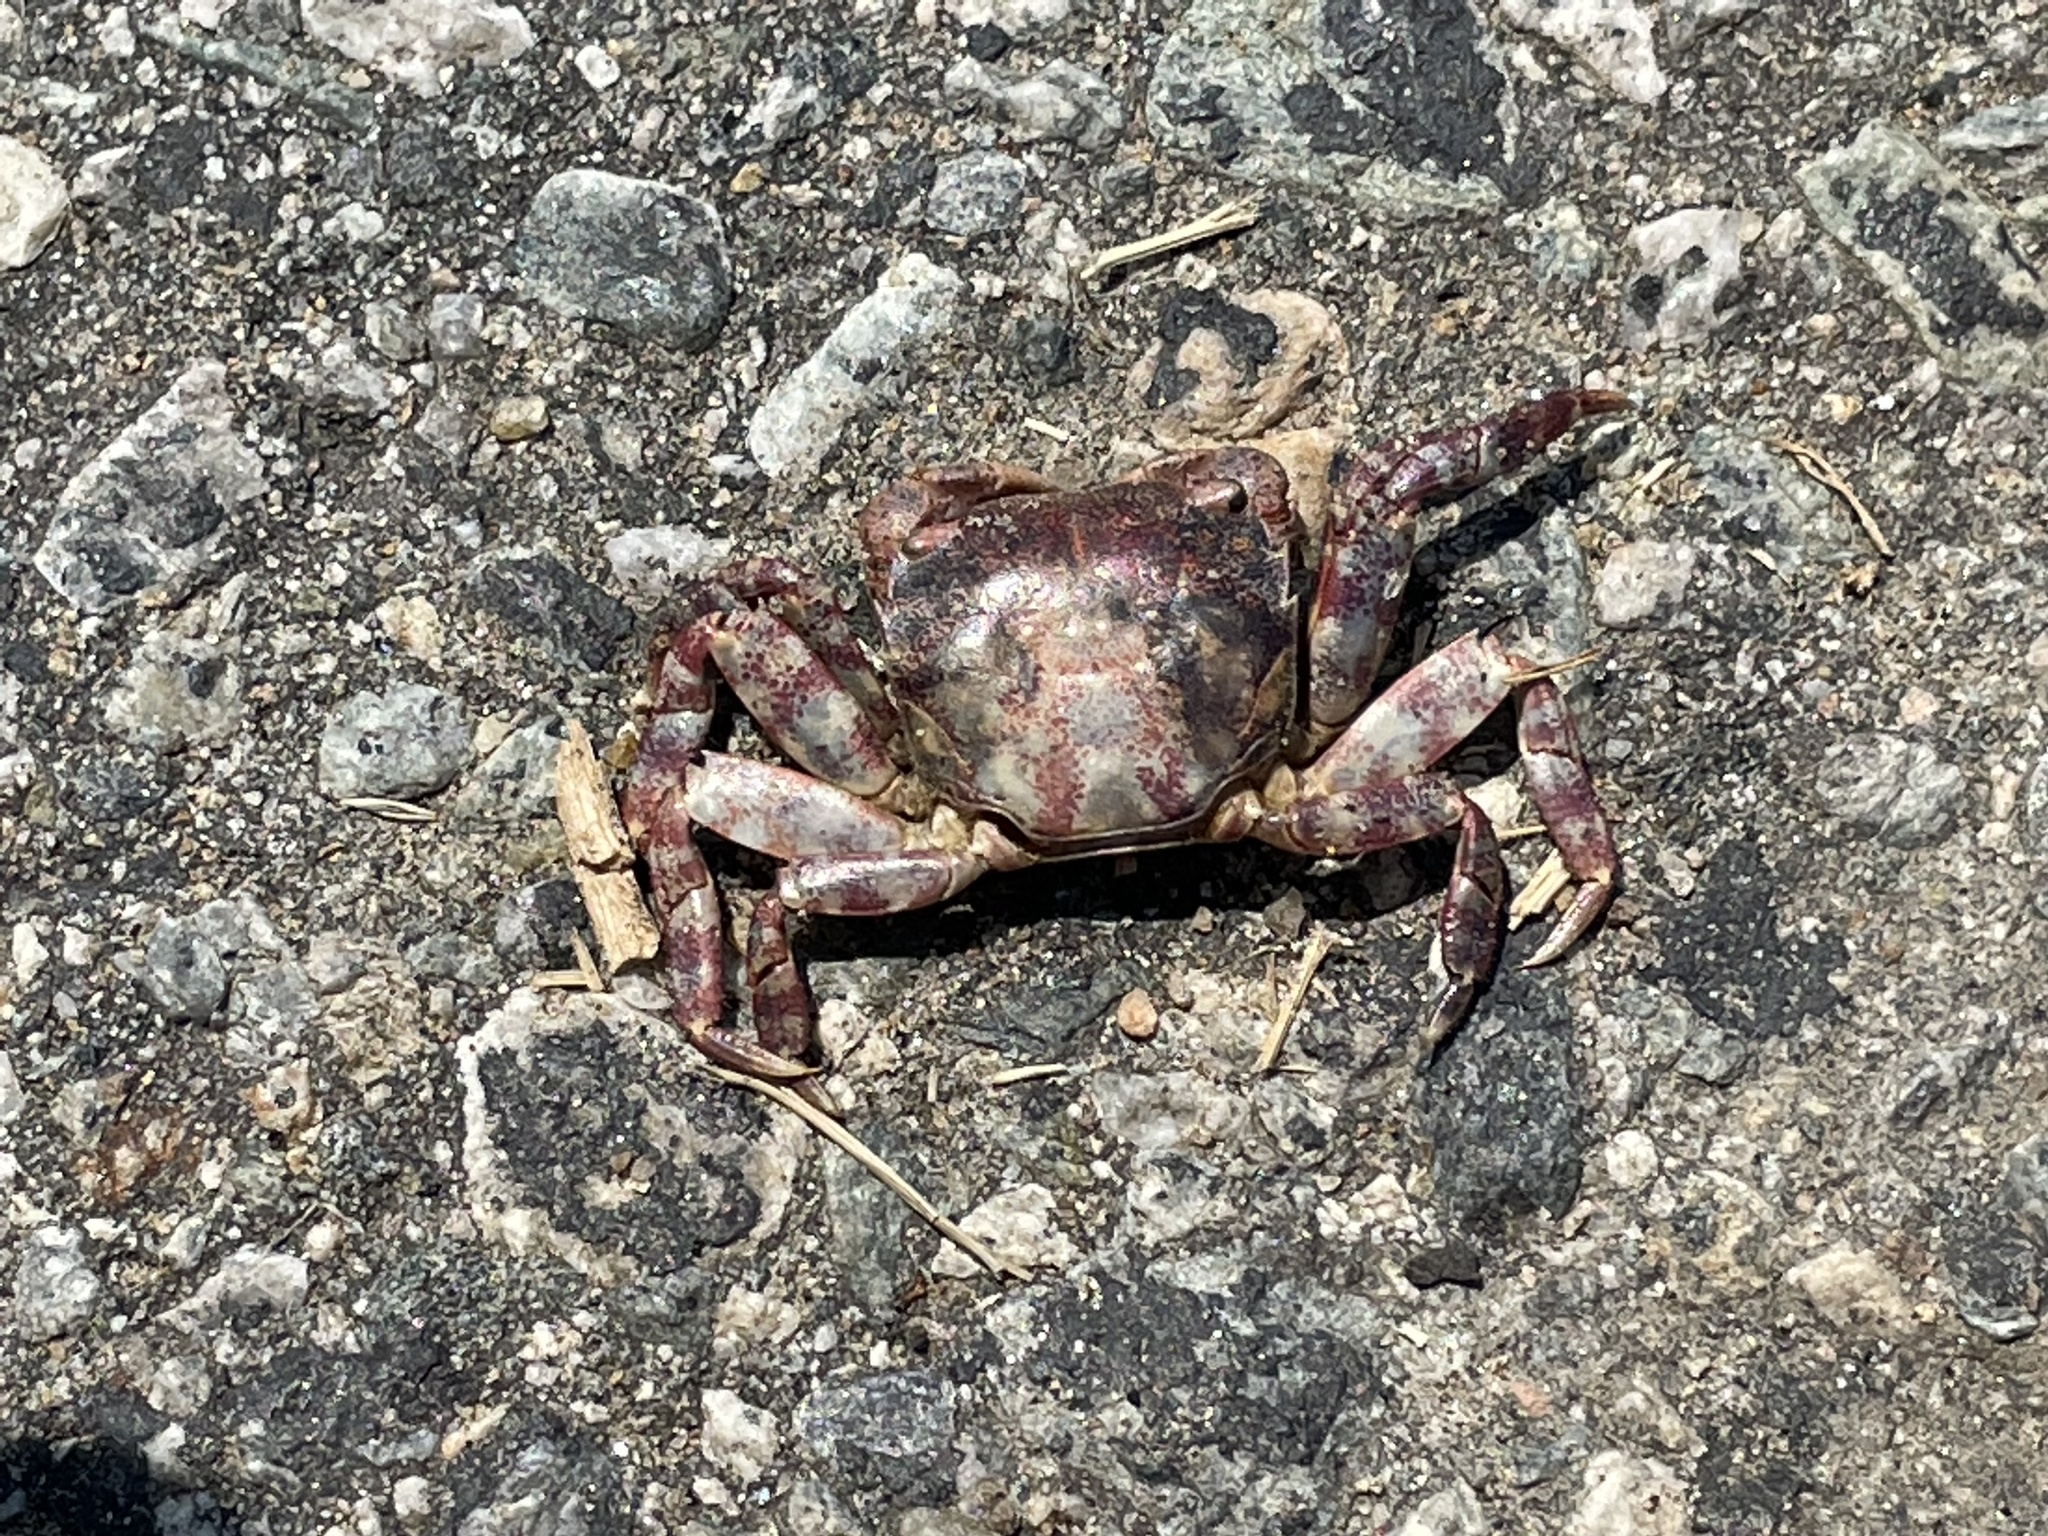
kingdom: Animalia
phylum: Arthropoda
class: Malacostraca
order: Decapoda
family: Varunidae
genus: Hemigrapsus
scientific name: Hemigrapsus sanguineus
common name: Asian shore crab
